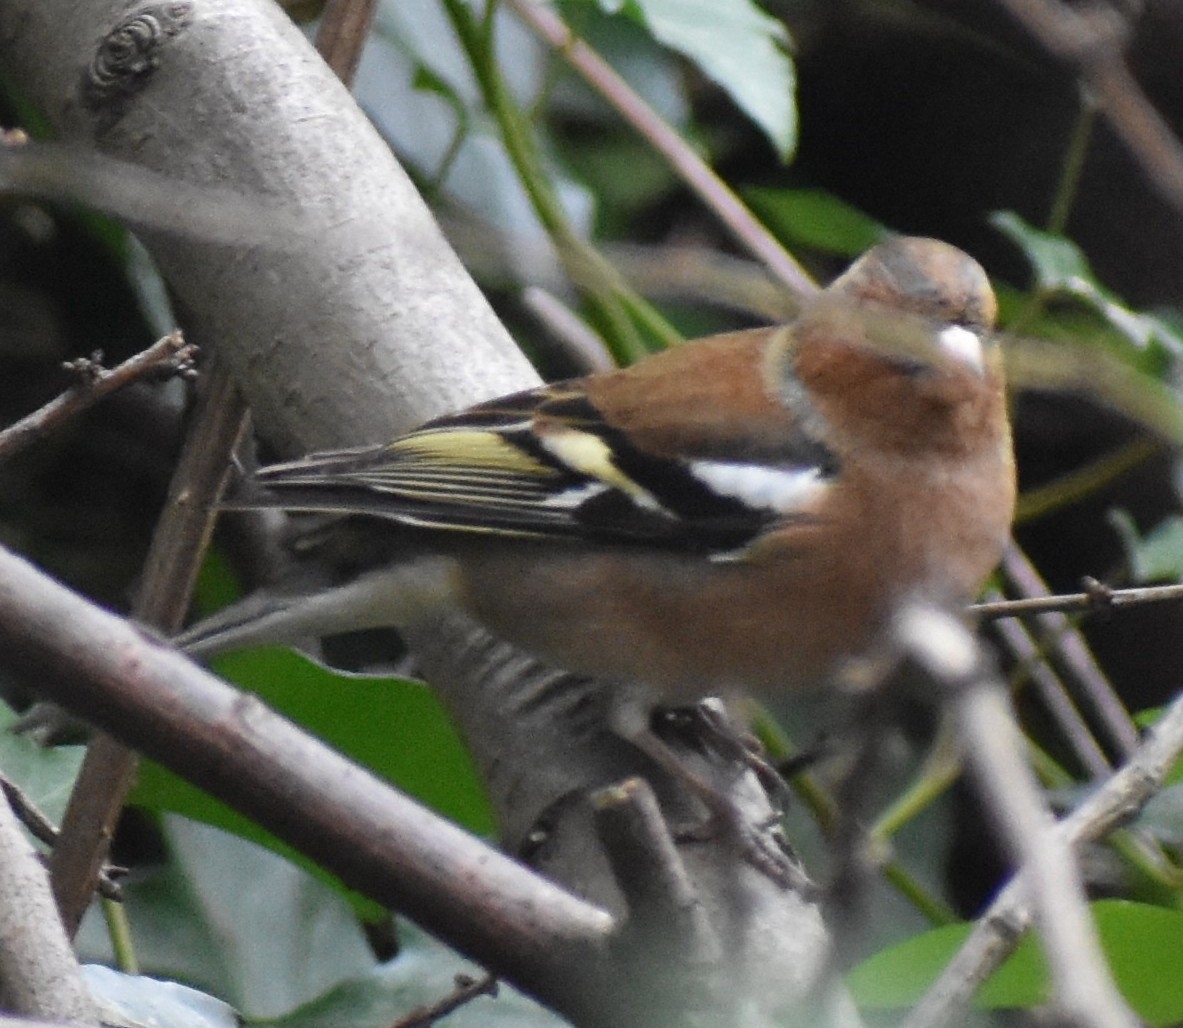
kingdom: Animalia
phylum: Chordata
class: Aves
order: Passeriformes
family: Fringillidae
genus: Fringilla
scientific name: Fringilla coelebs
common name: Common chaffinch
